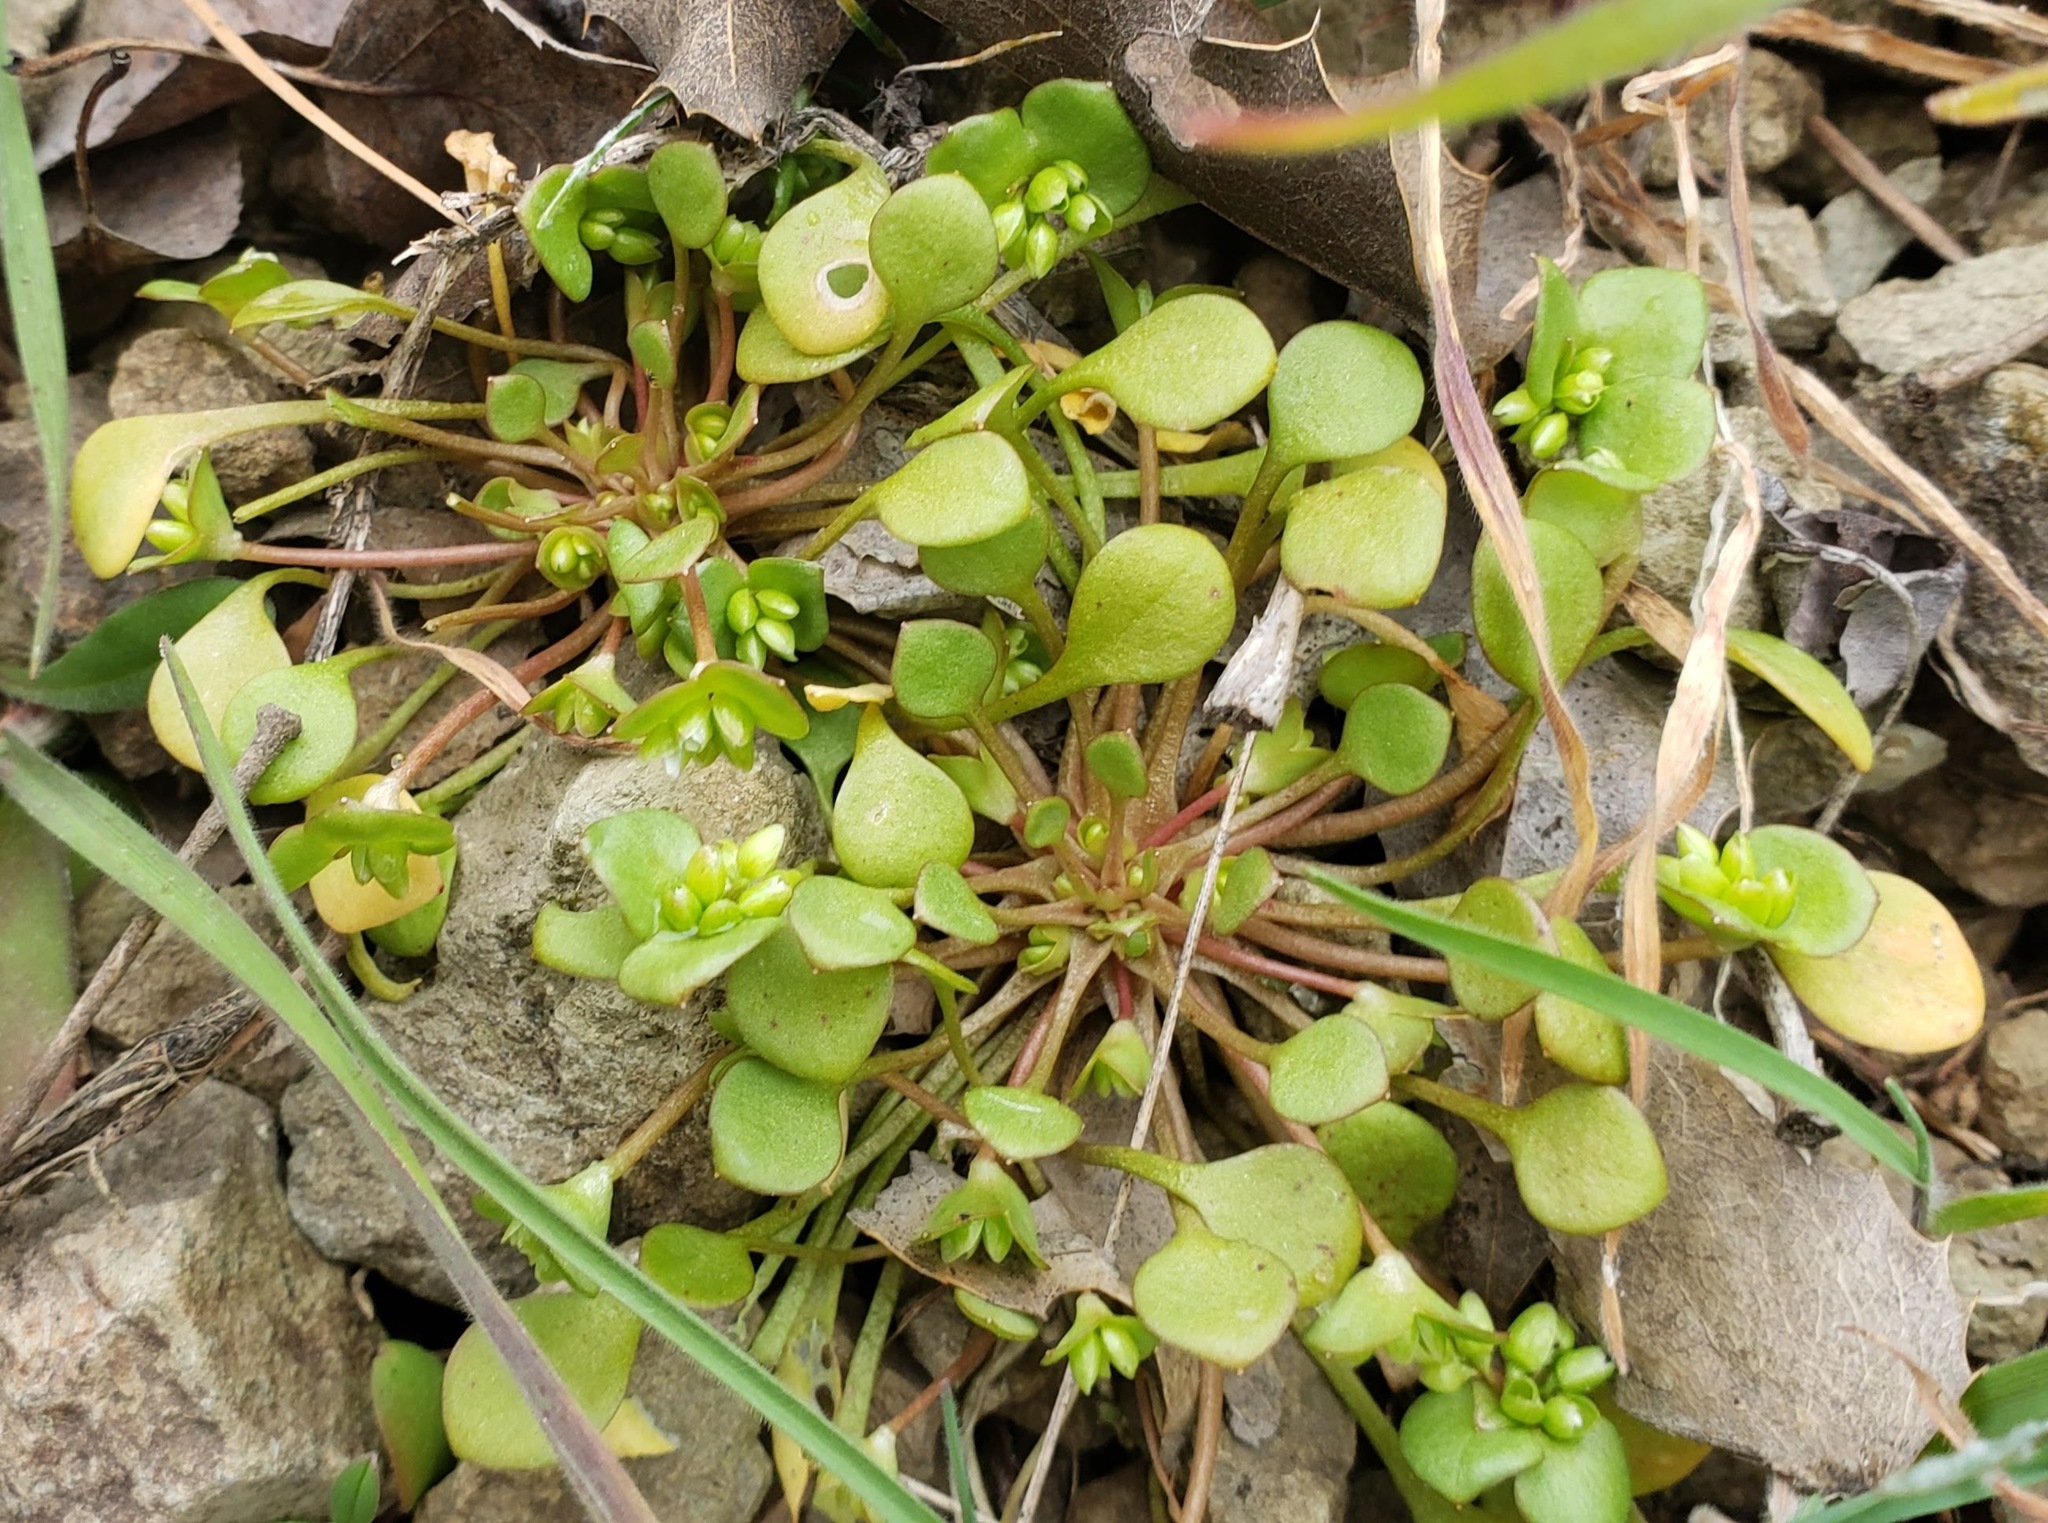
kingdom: Plantae
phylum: Tracheophyta
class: Magnoliopsida
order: Caryophyllales
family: Montiaceae
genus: Claytonia
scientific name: Claytonia rubra
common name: Erubescent miner's-lettuce
